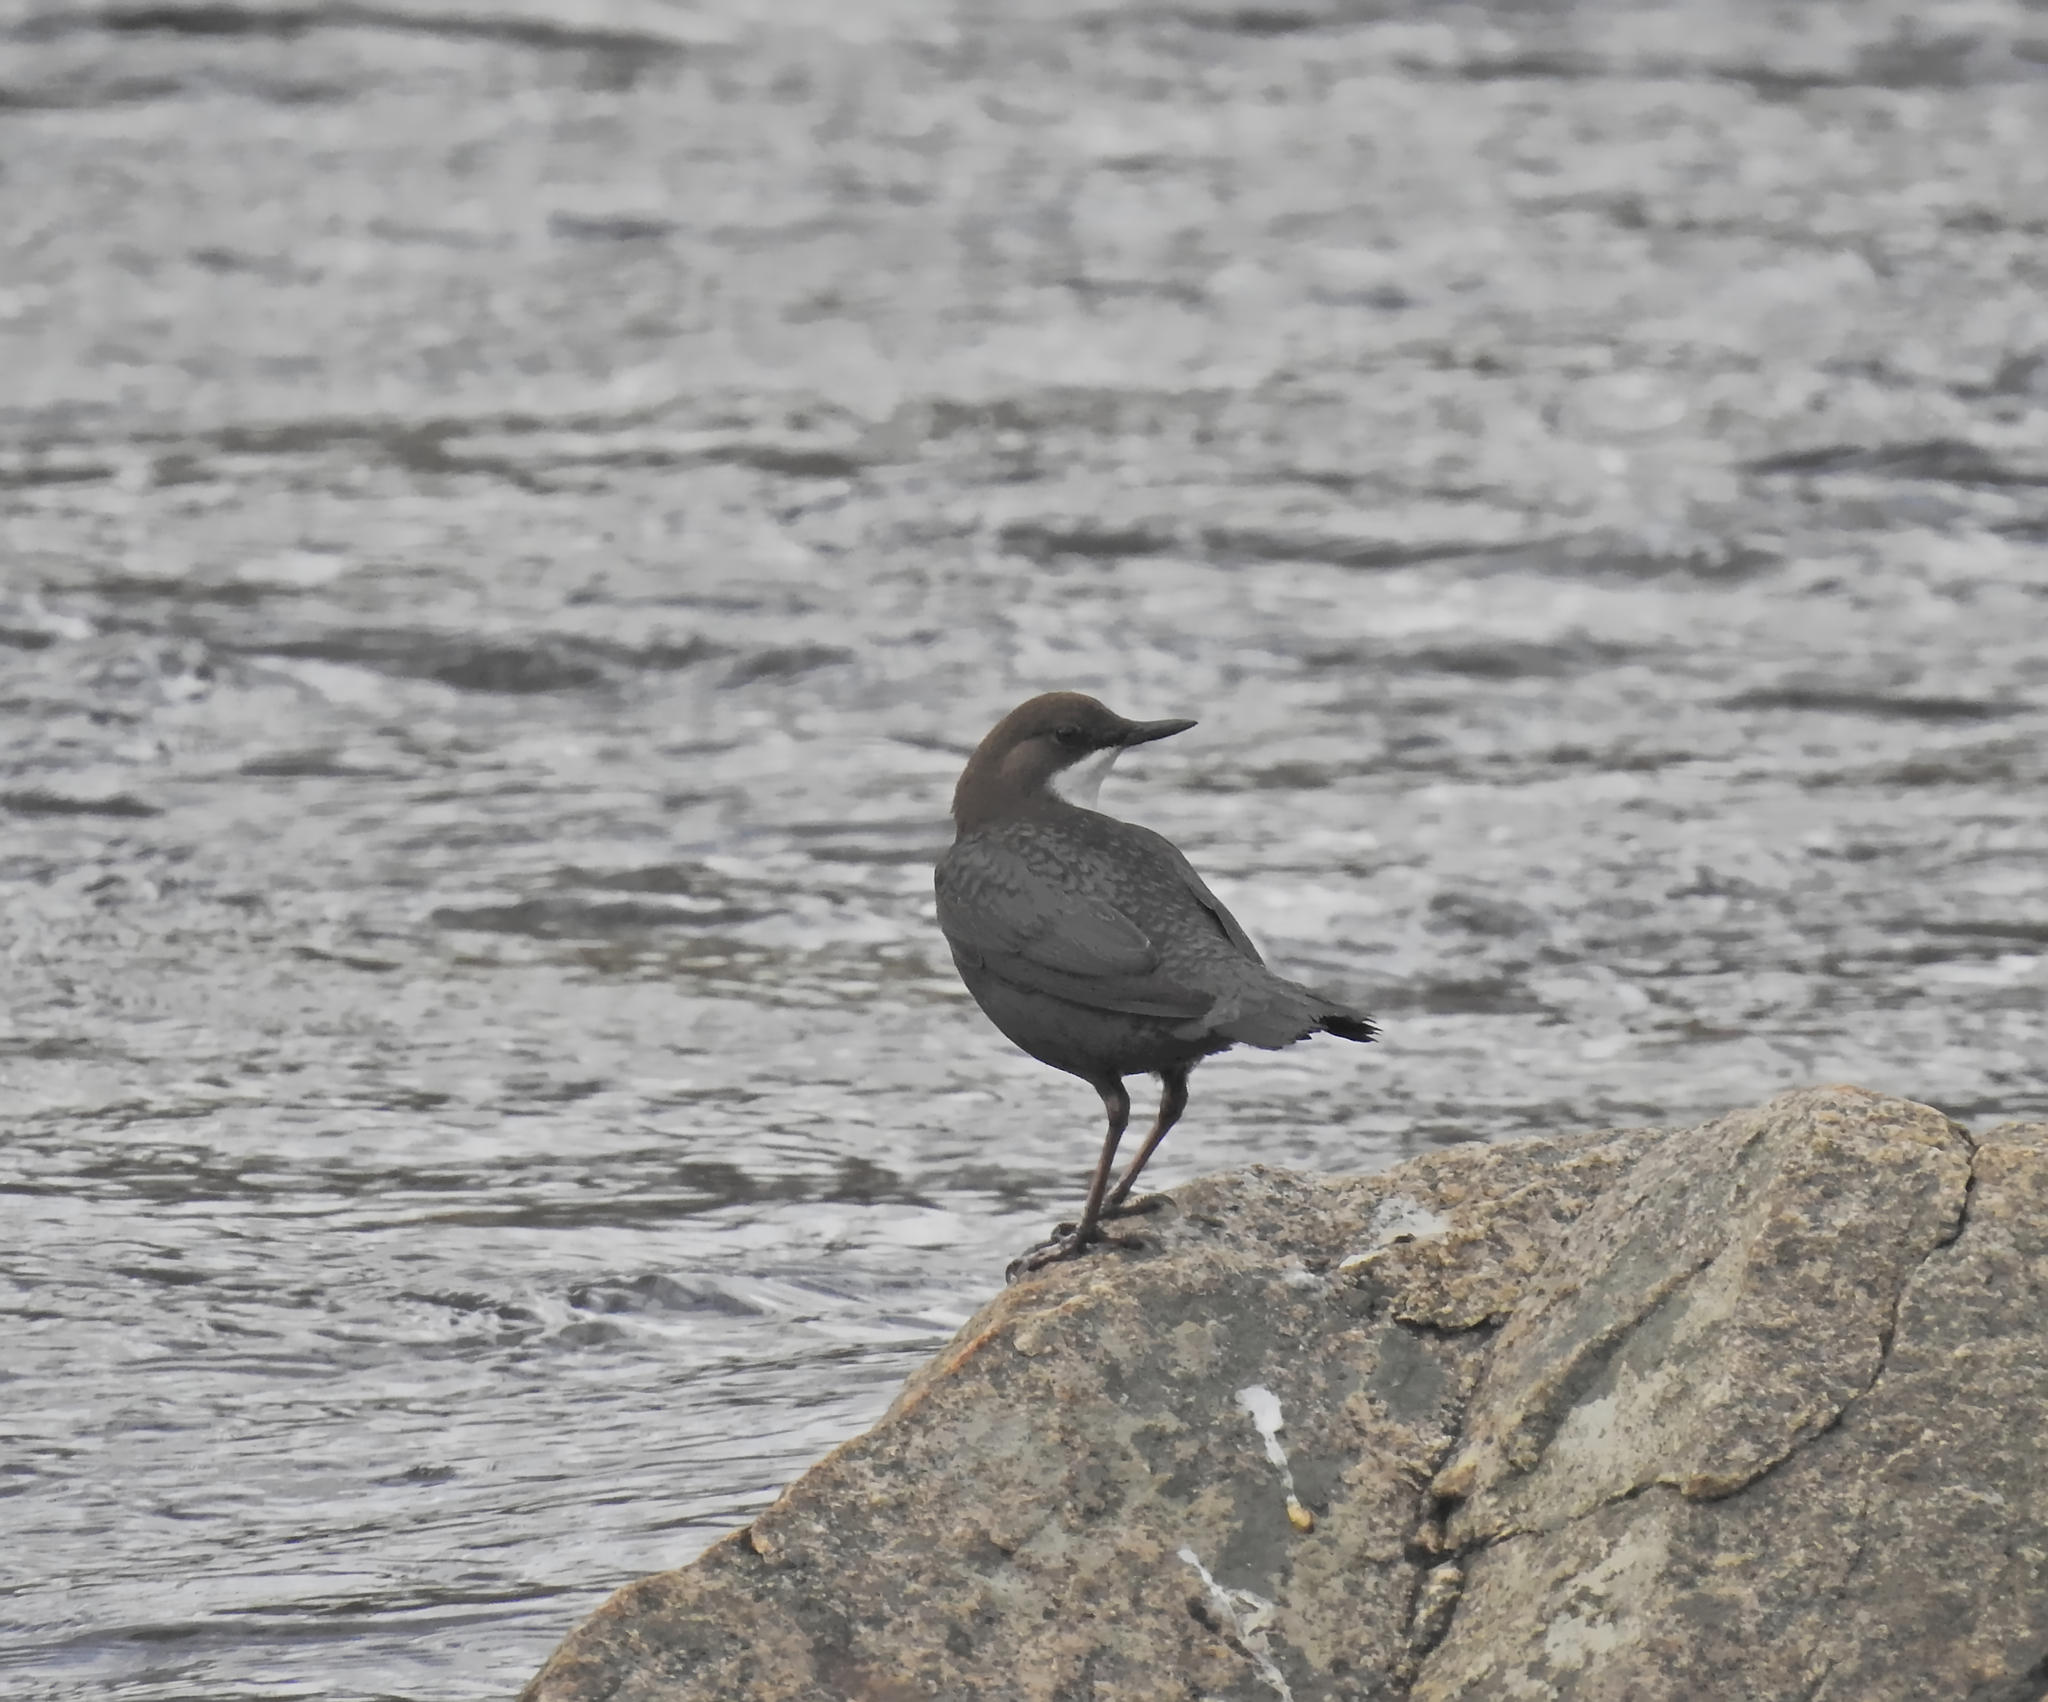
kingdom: Animalia
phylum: Chordata
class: Aves
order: Passeriformes
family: Cinclidae
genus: Cinclus
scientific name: Cinclus cinclus
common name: White-throated dipper
